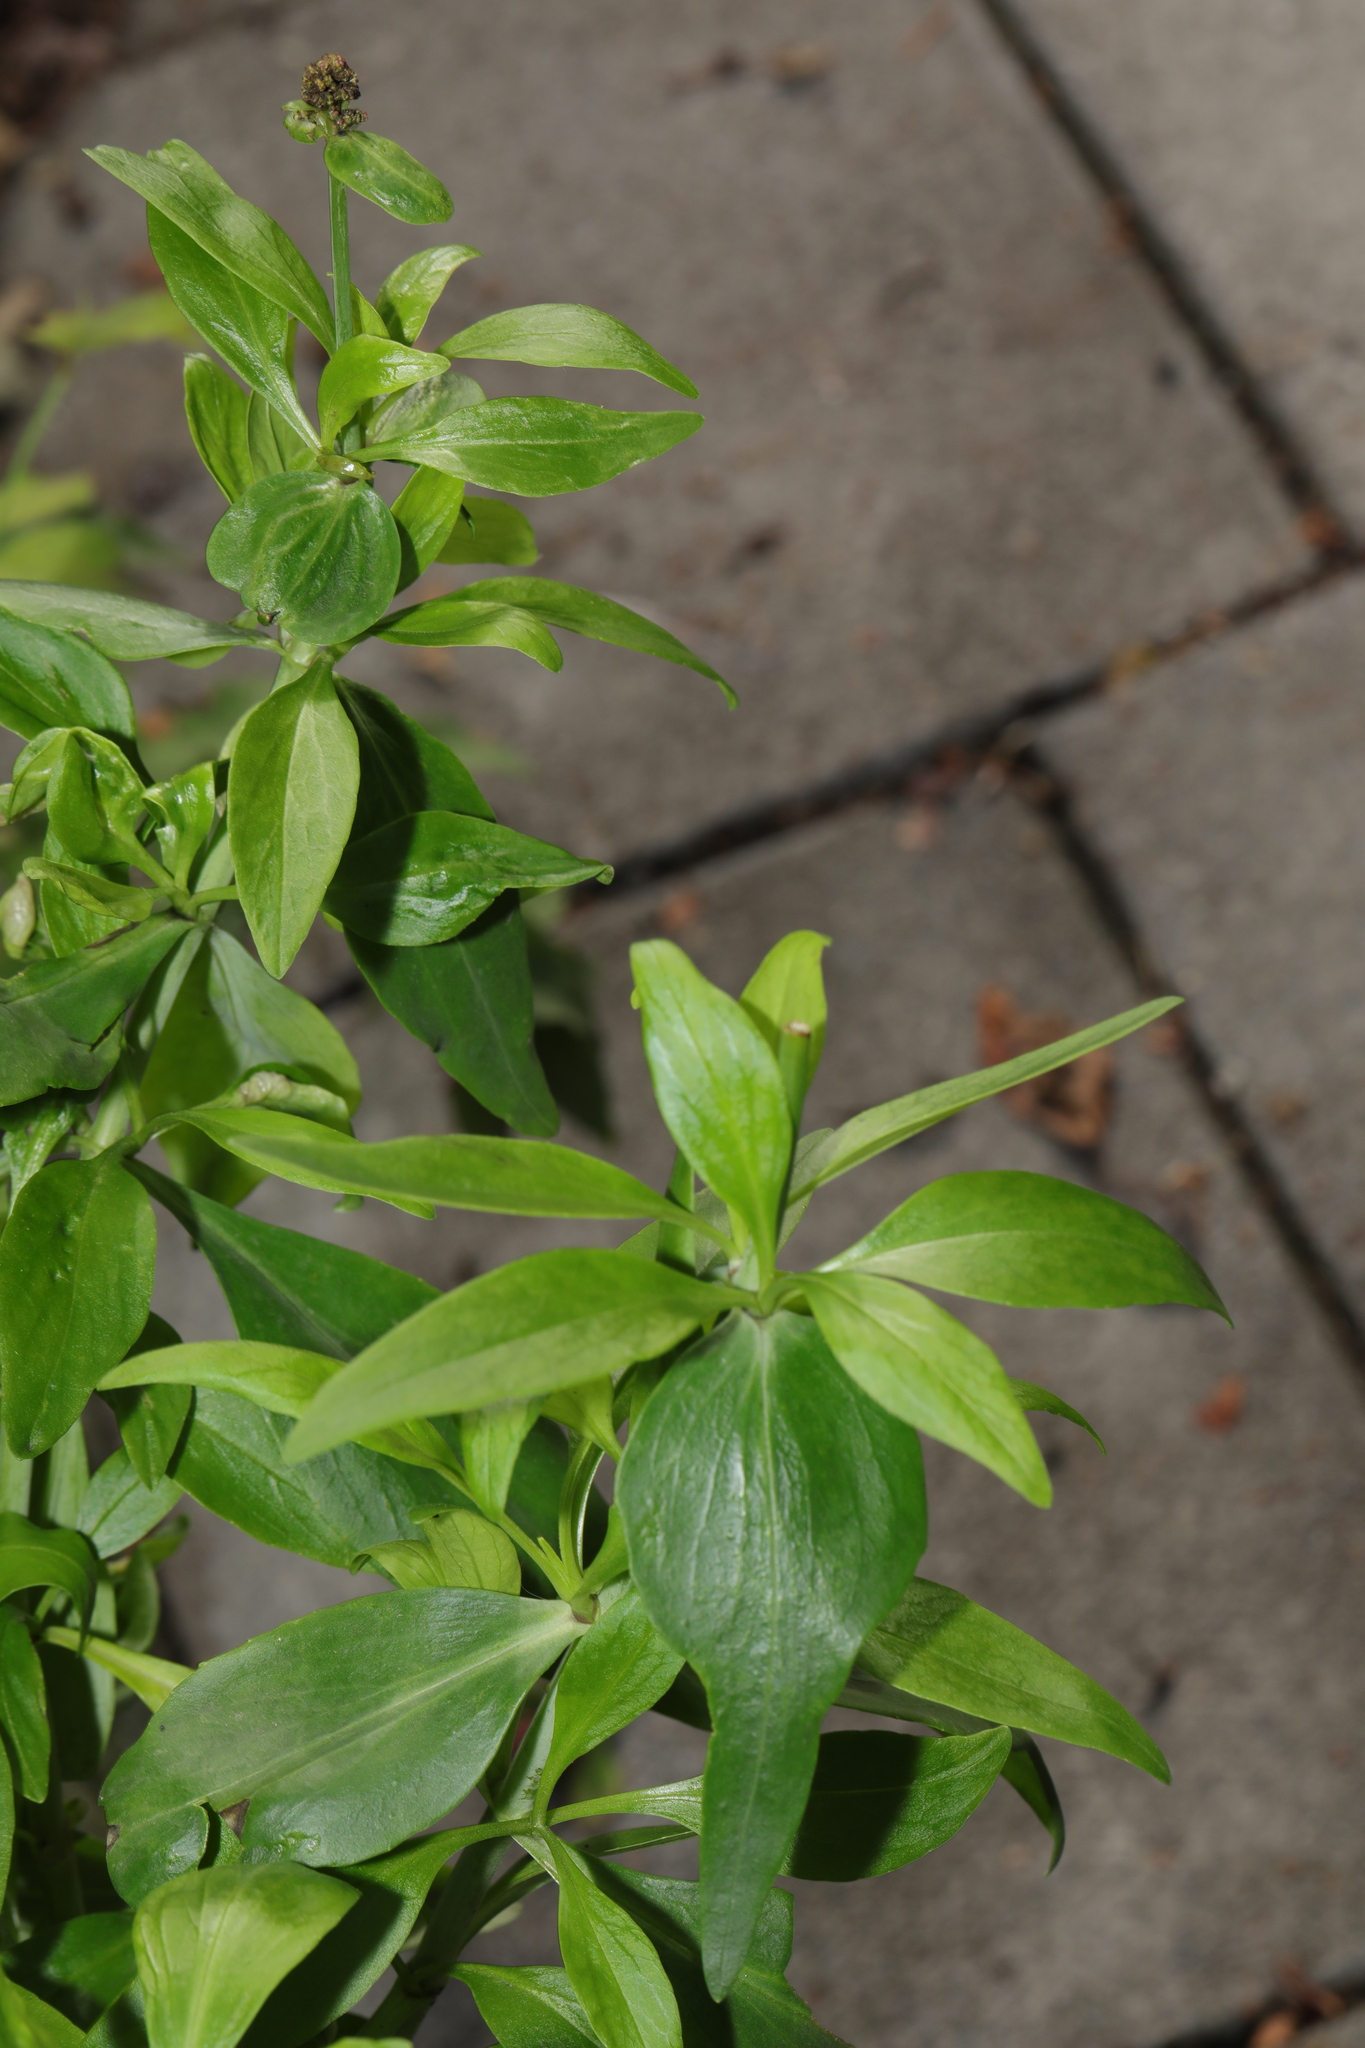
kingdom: Plantae
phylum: Tracheophyta
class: Magnoliopsida
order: Dipsacales
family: Caprifoliaceae
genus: Centranthus
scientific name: Centranthus ruber
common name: Red valerian
